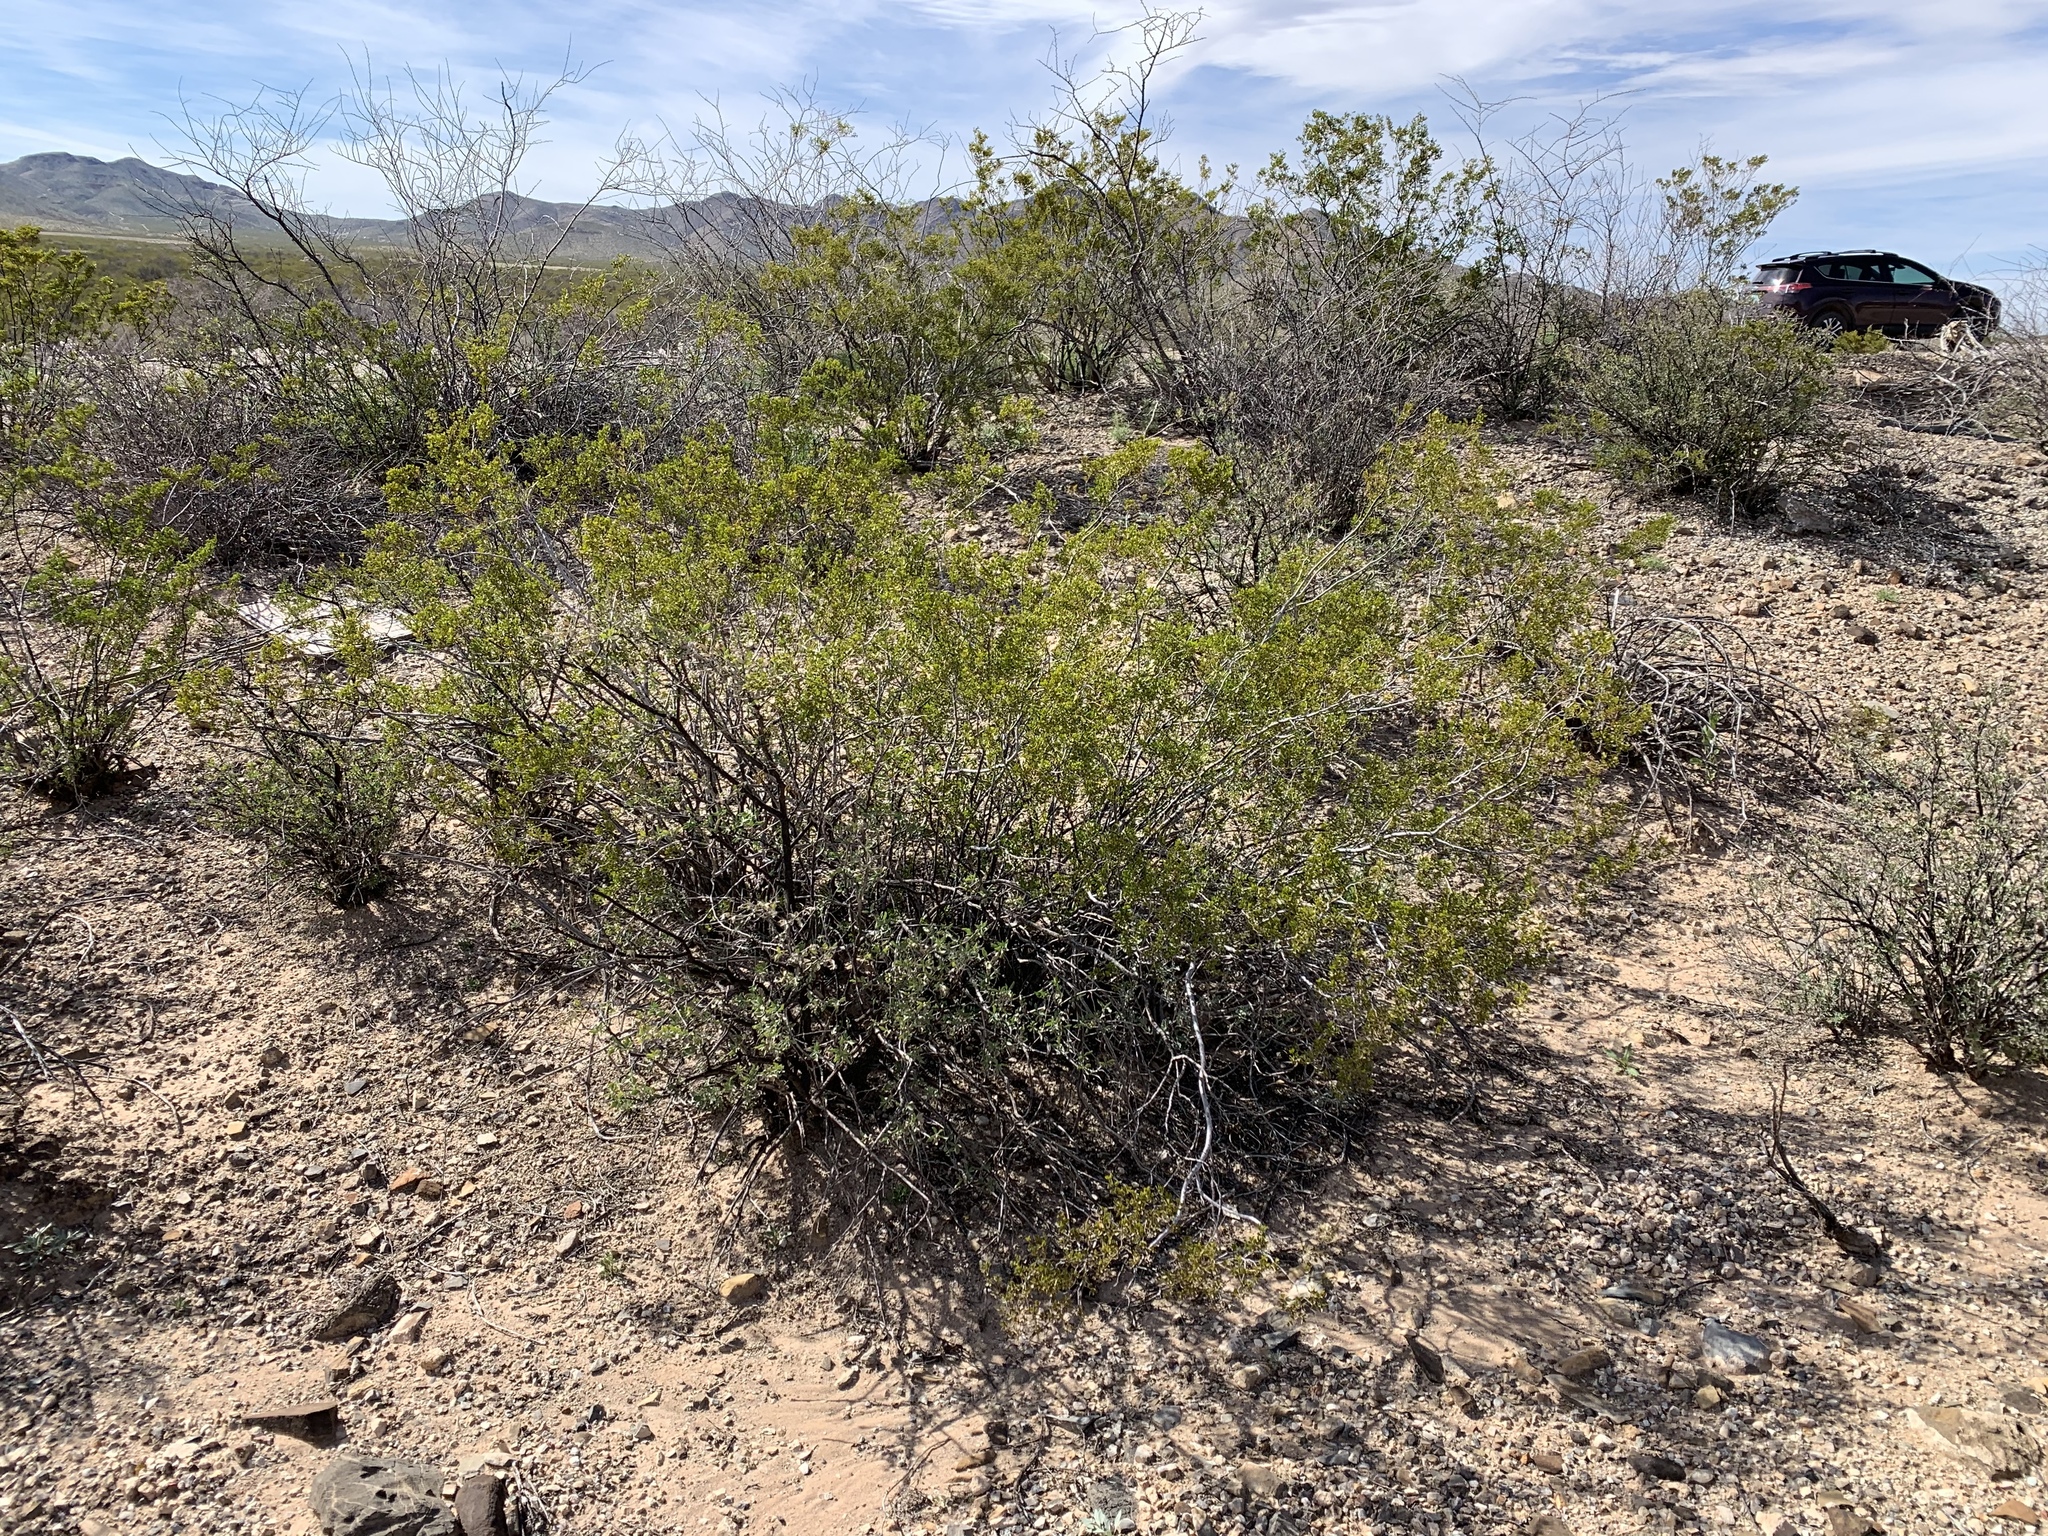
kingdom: Plantae
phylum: Tracheophyta
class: Magnoliopsida
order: Zygophyllales
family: Zygophyllaceae
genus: Larrea
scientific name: Larrea tridentata
